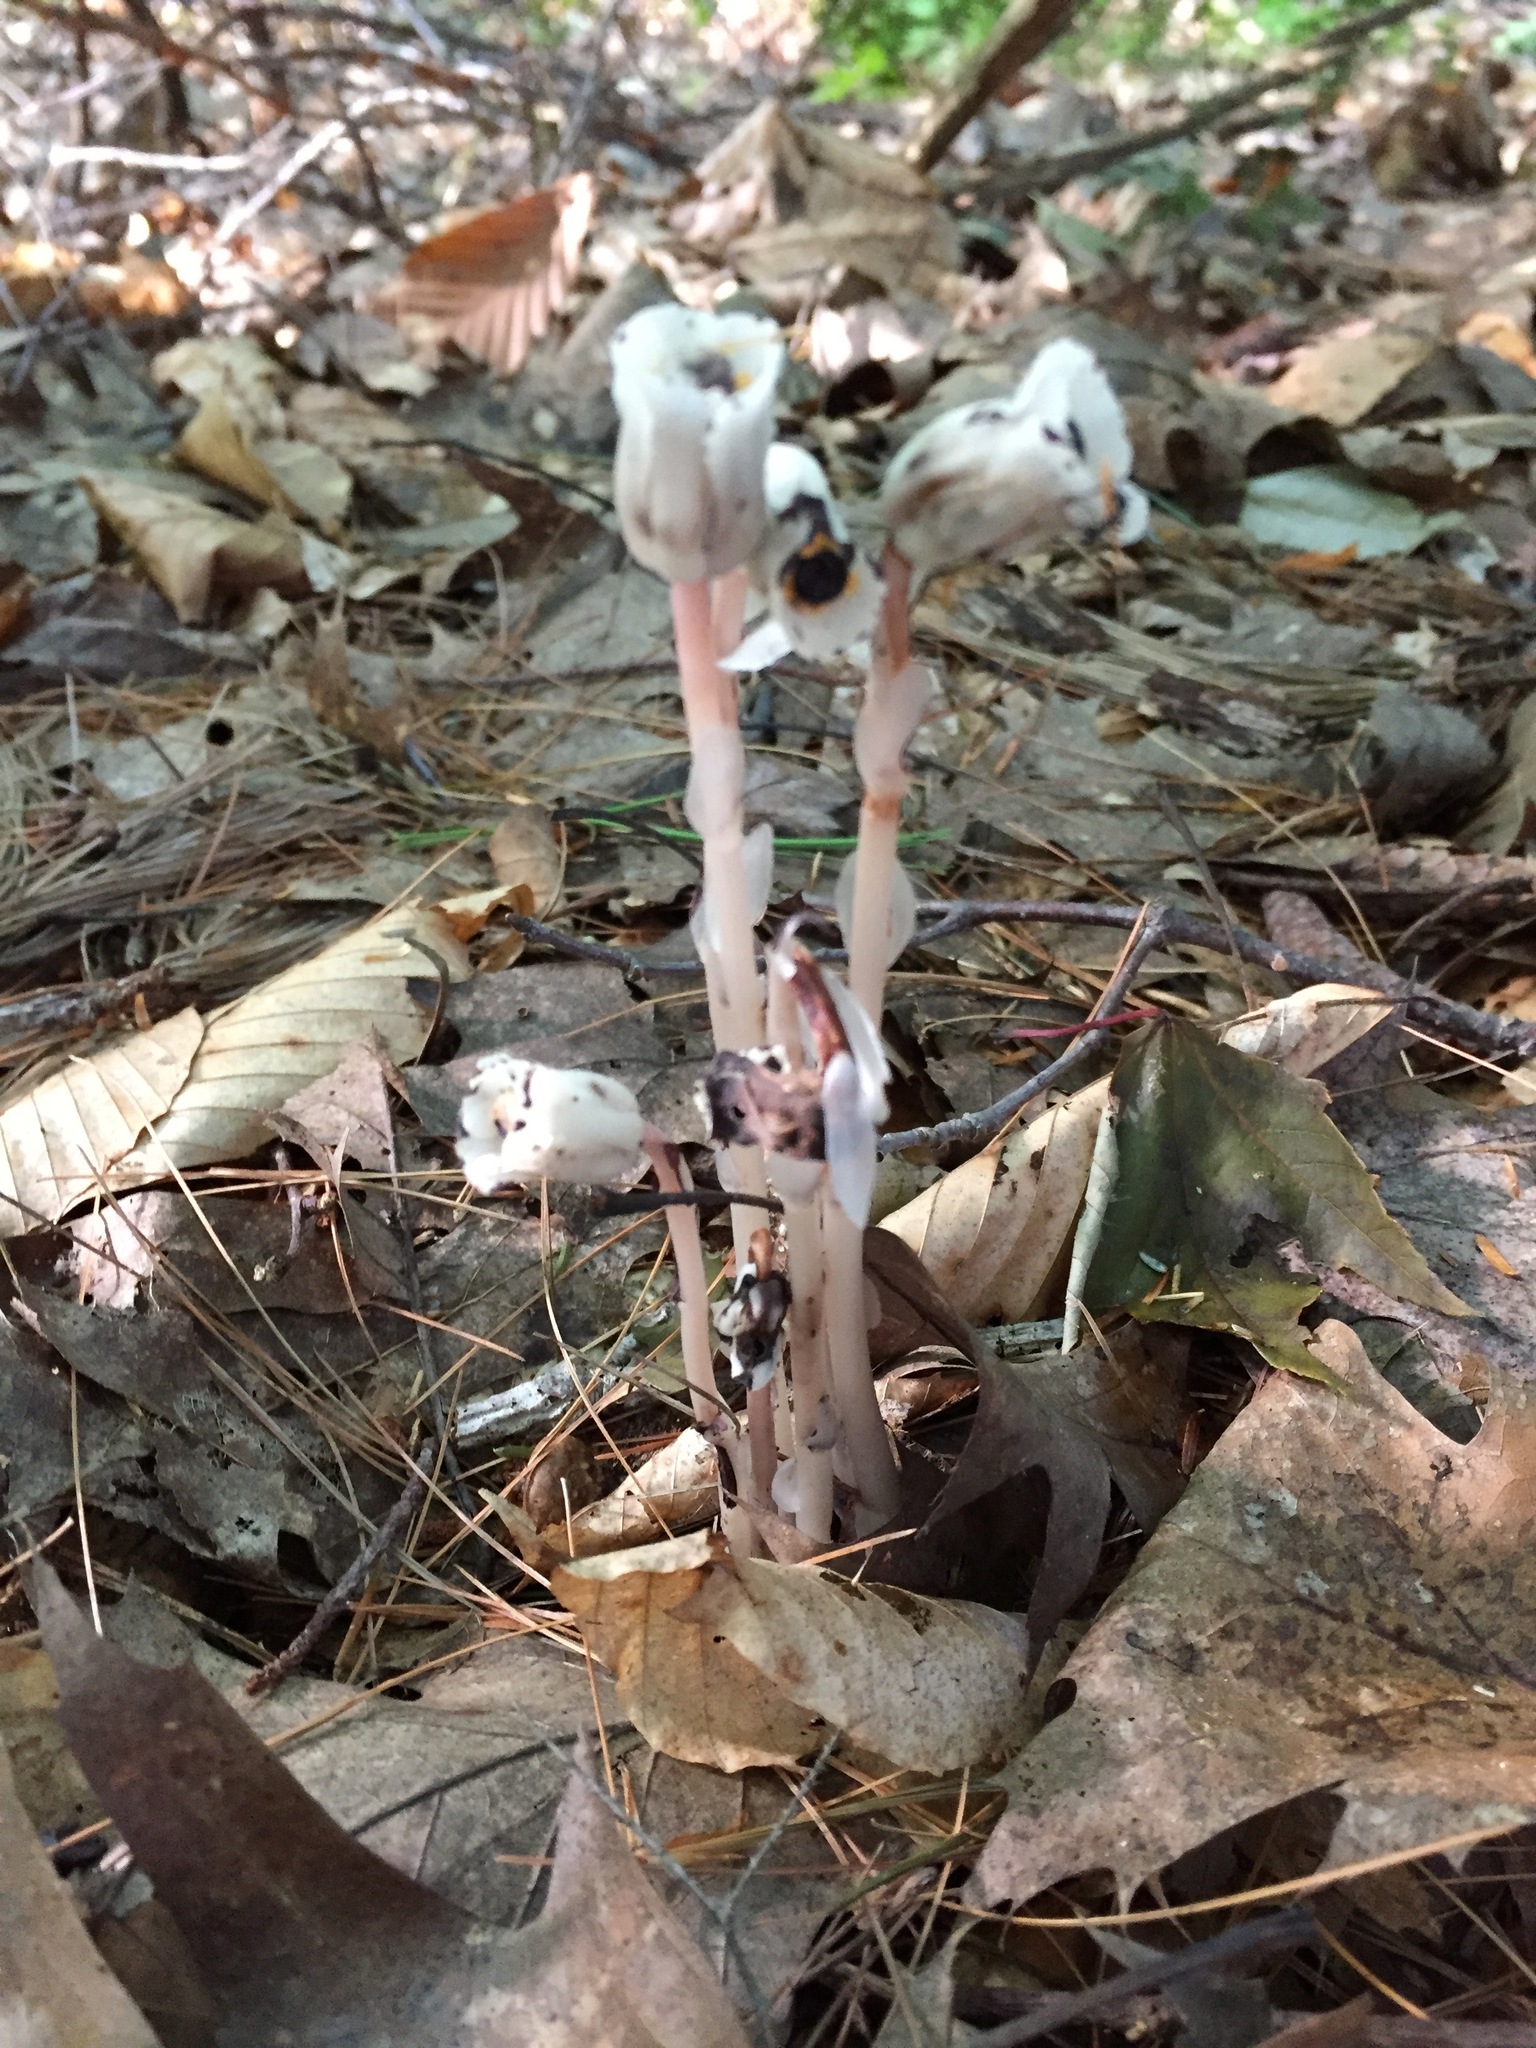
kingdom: Plantae
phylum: Tracheophyta
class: Magnoliopsida
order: Ericales
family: Ericaceae
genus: Monotropa
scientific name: Monotropa uniflora
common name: Convulsion root
